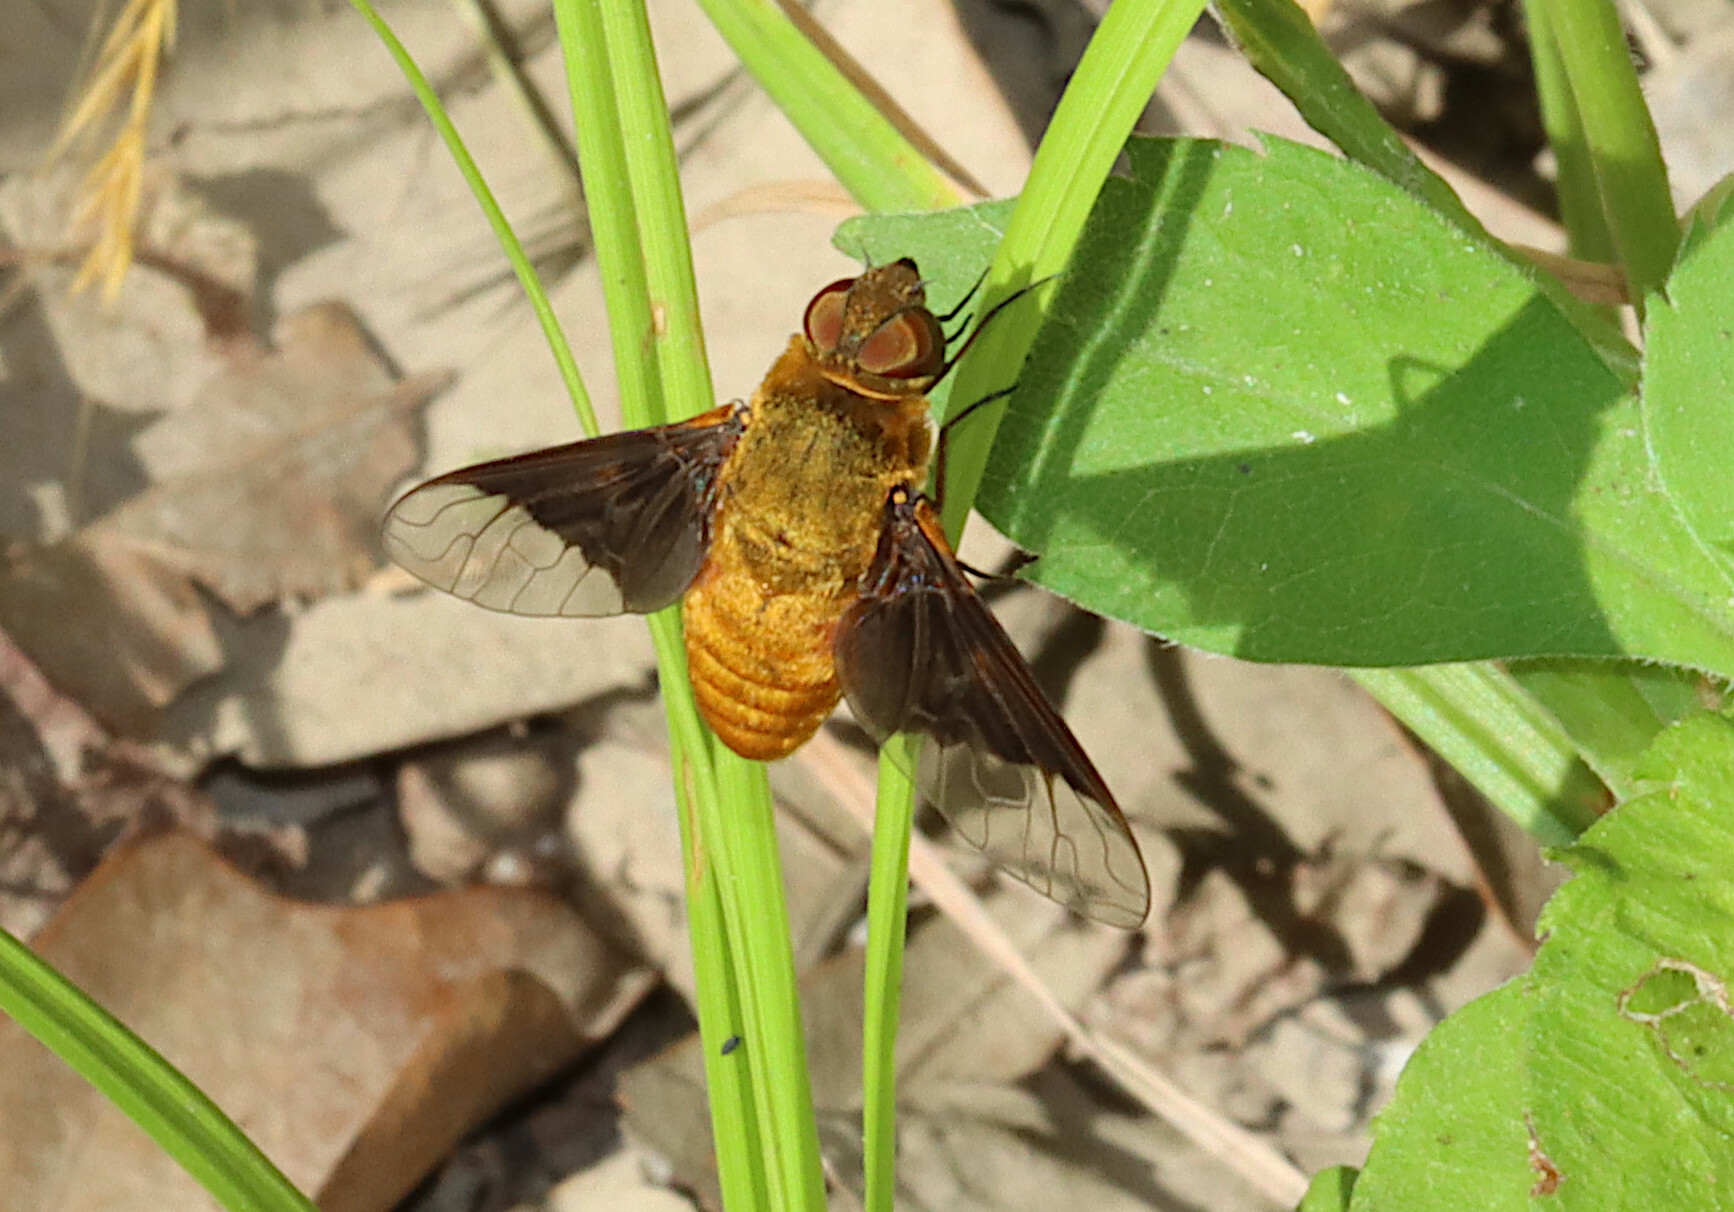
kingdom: Animalia
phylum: Arthropoda
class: Insecta
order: Diptera
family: Bombyliidae
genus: Chrysanthrax
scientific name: Chrysanthrax cypris
